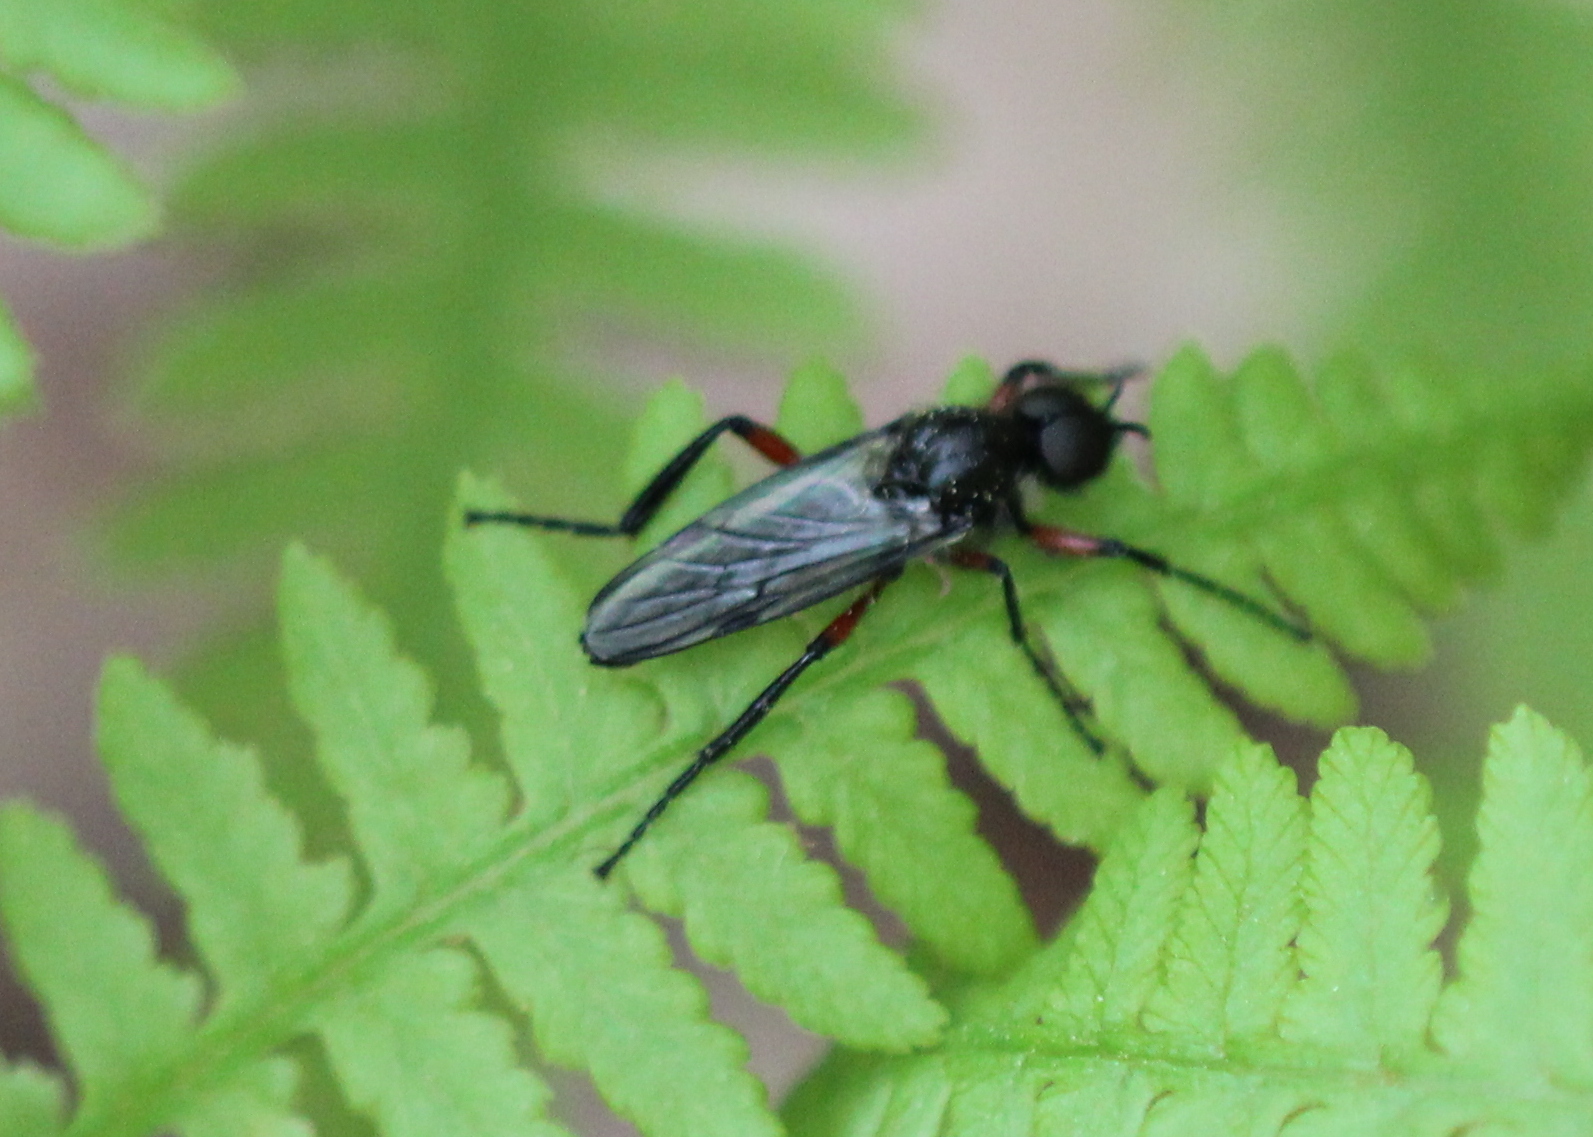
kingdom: Animalia
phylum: Arthropoda
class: Insecta
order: Diptera
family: Bibionidae
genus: Bibio
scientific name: Bibio femoratus
